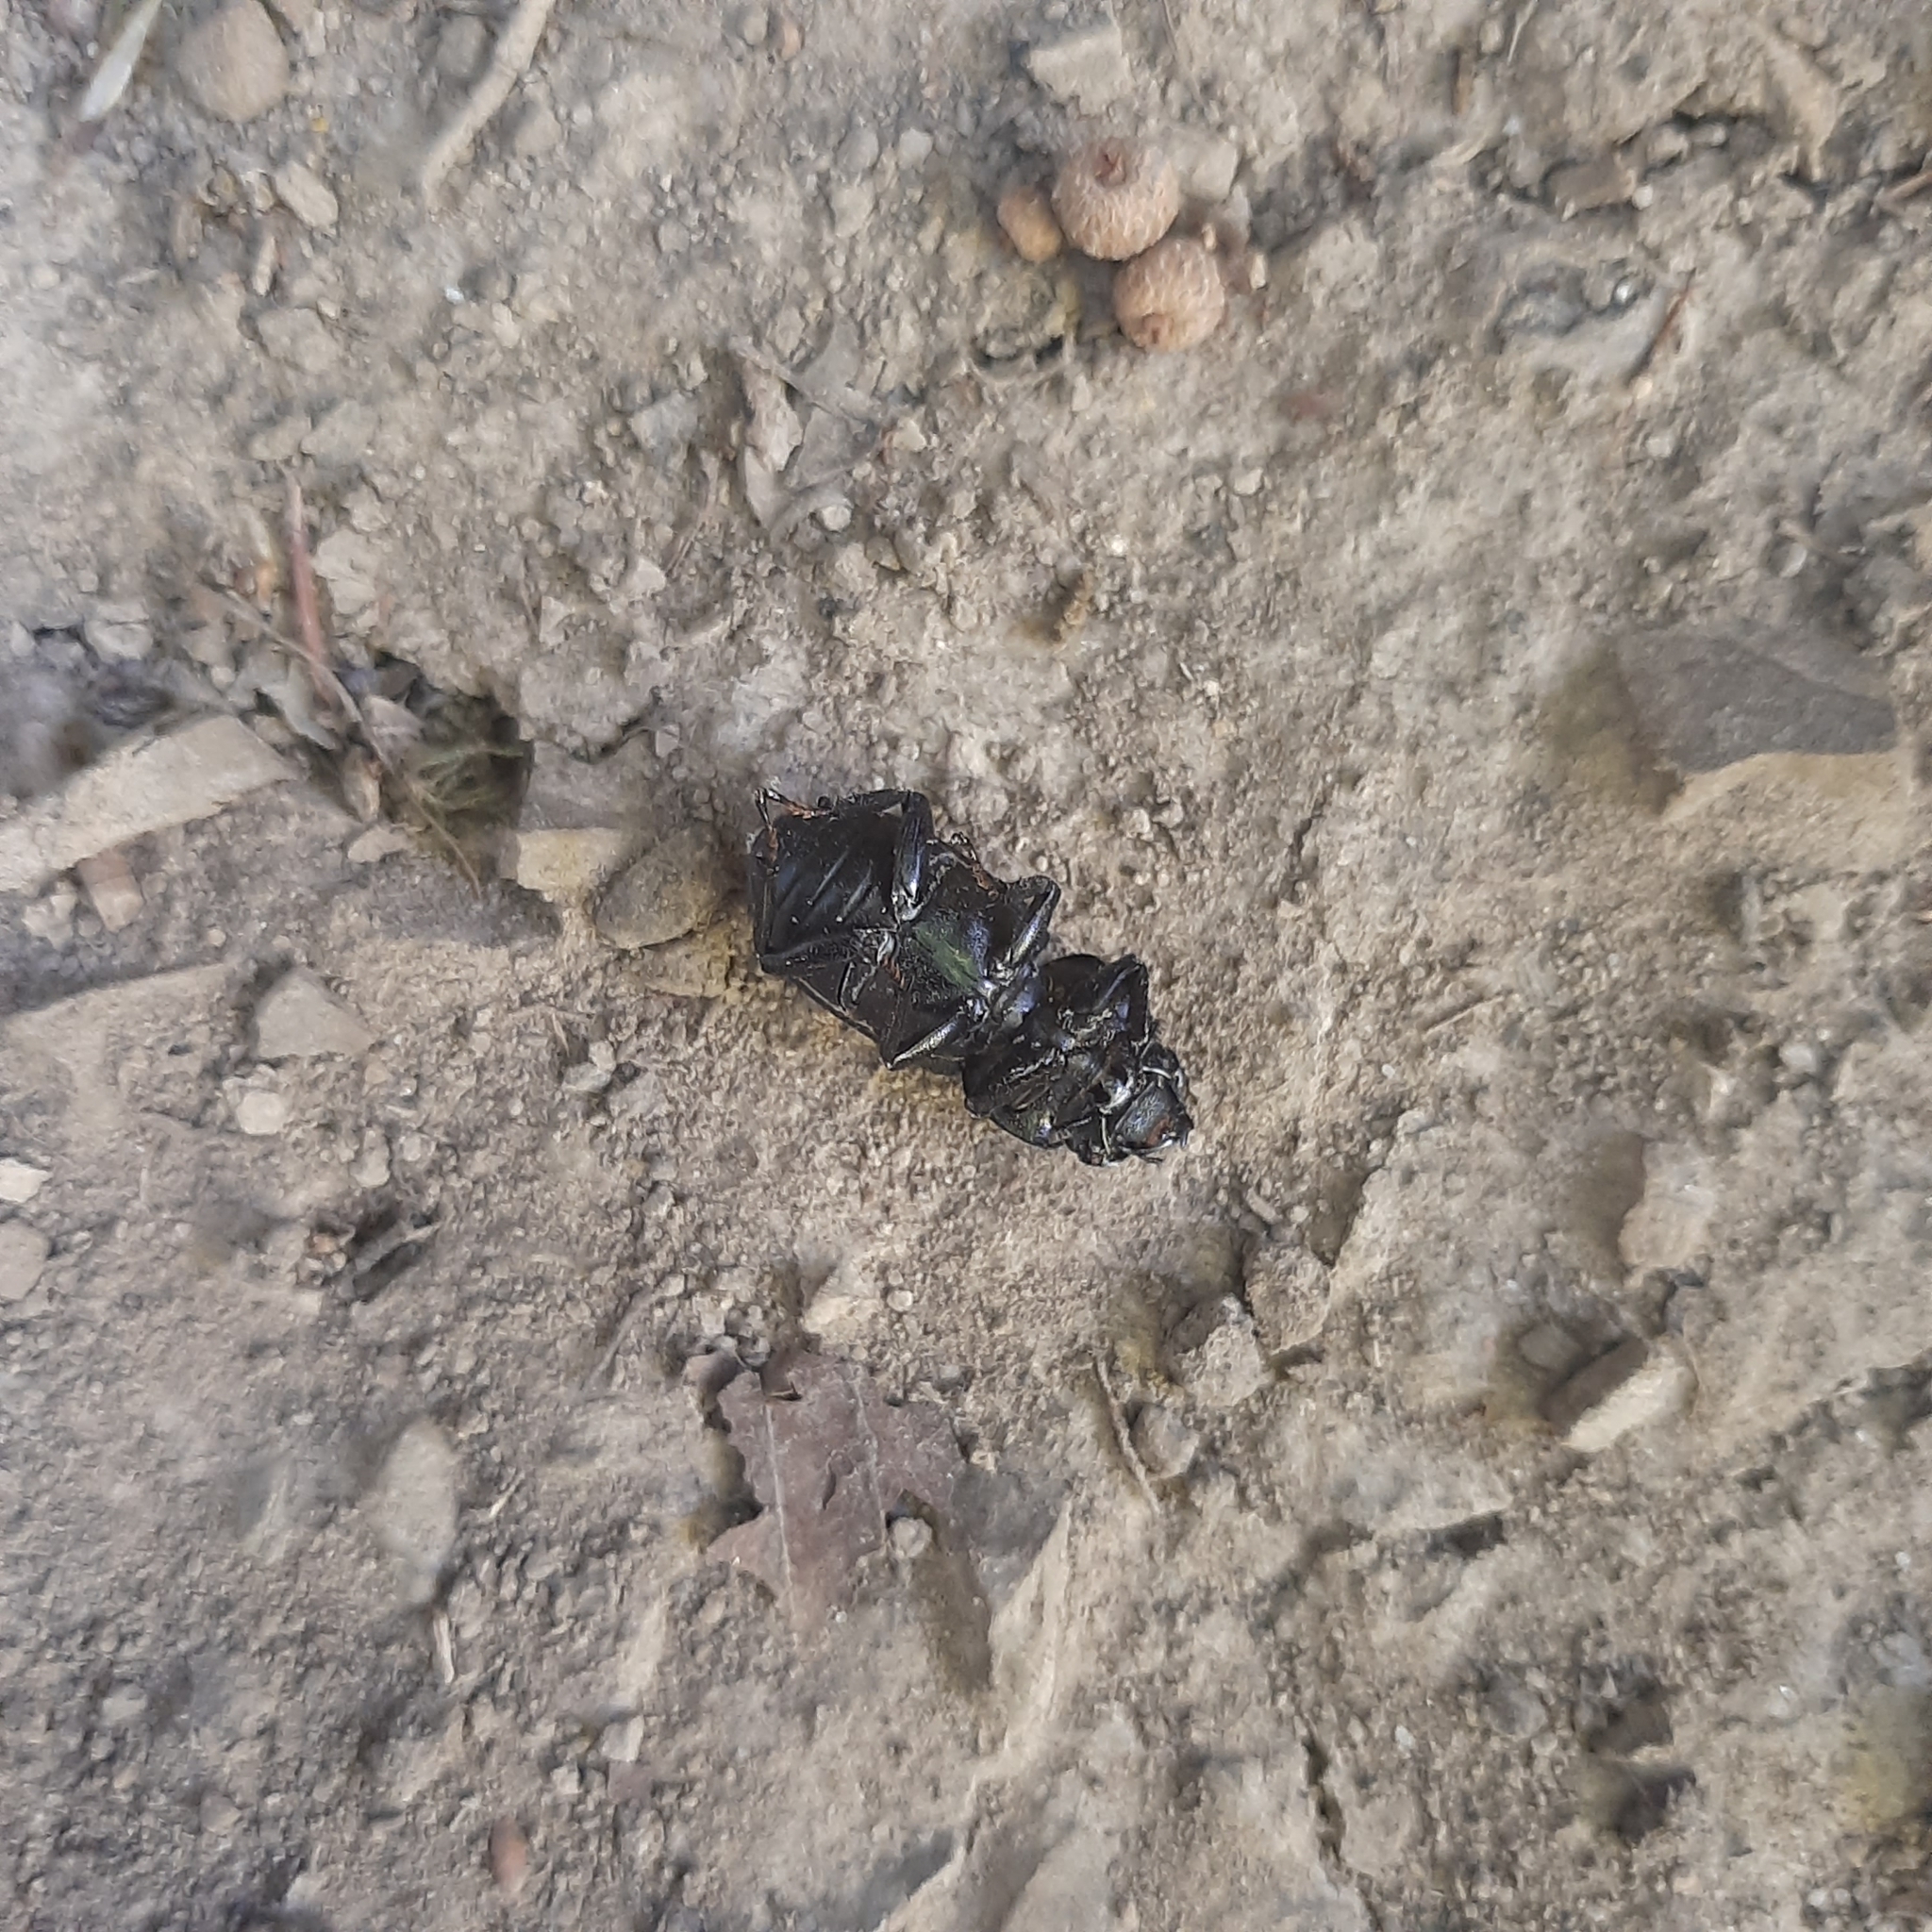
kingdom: Animalia
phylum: Arthropoda
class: Insecta
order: Coleoptera
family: Lucanidae
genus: Dorcus
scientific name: Dorcus parallelipipedus
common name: Lesser stag beetle
